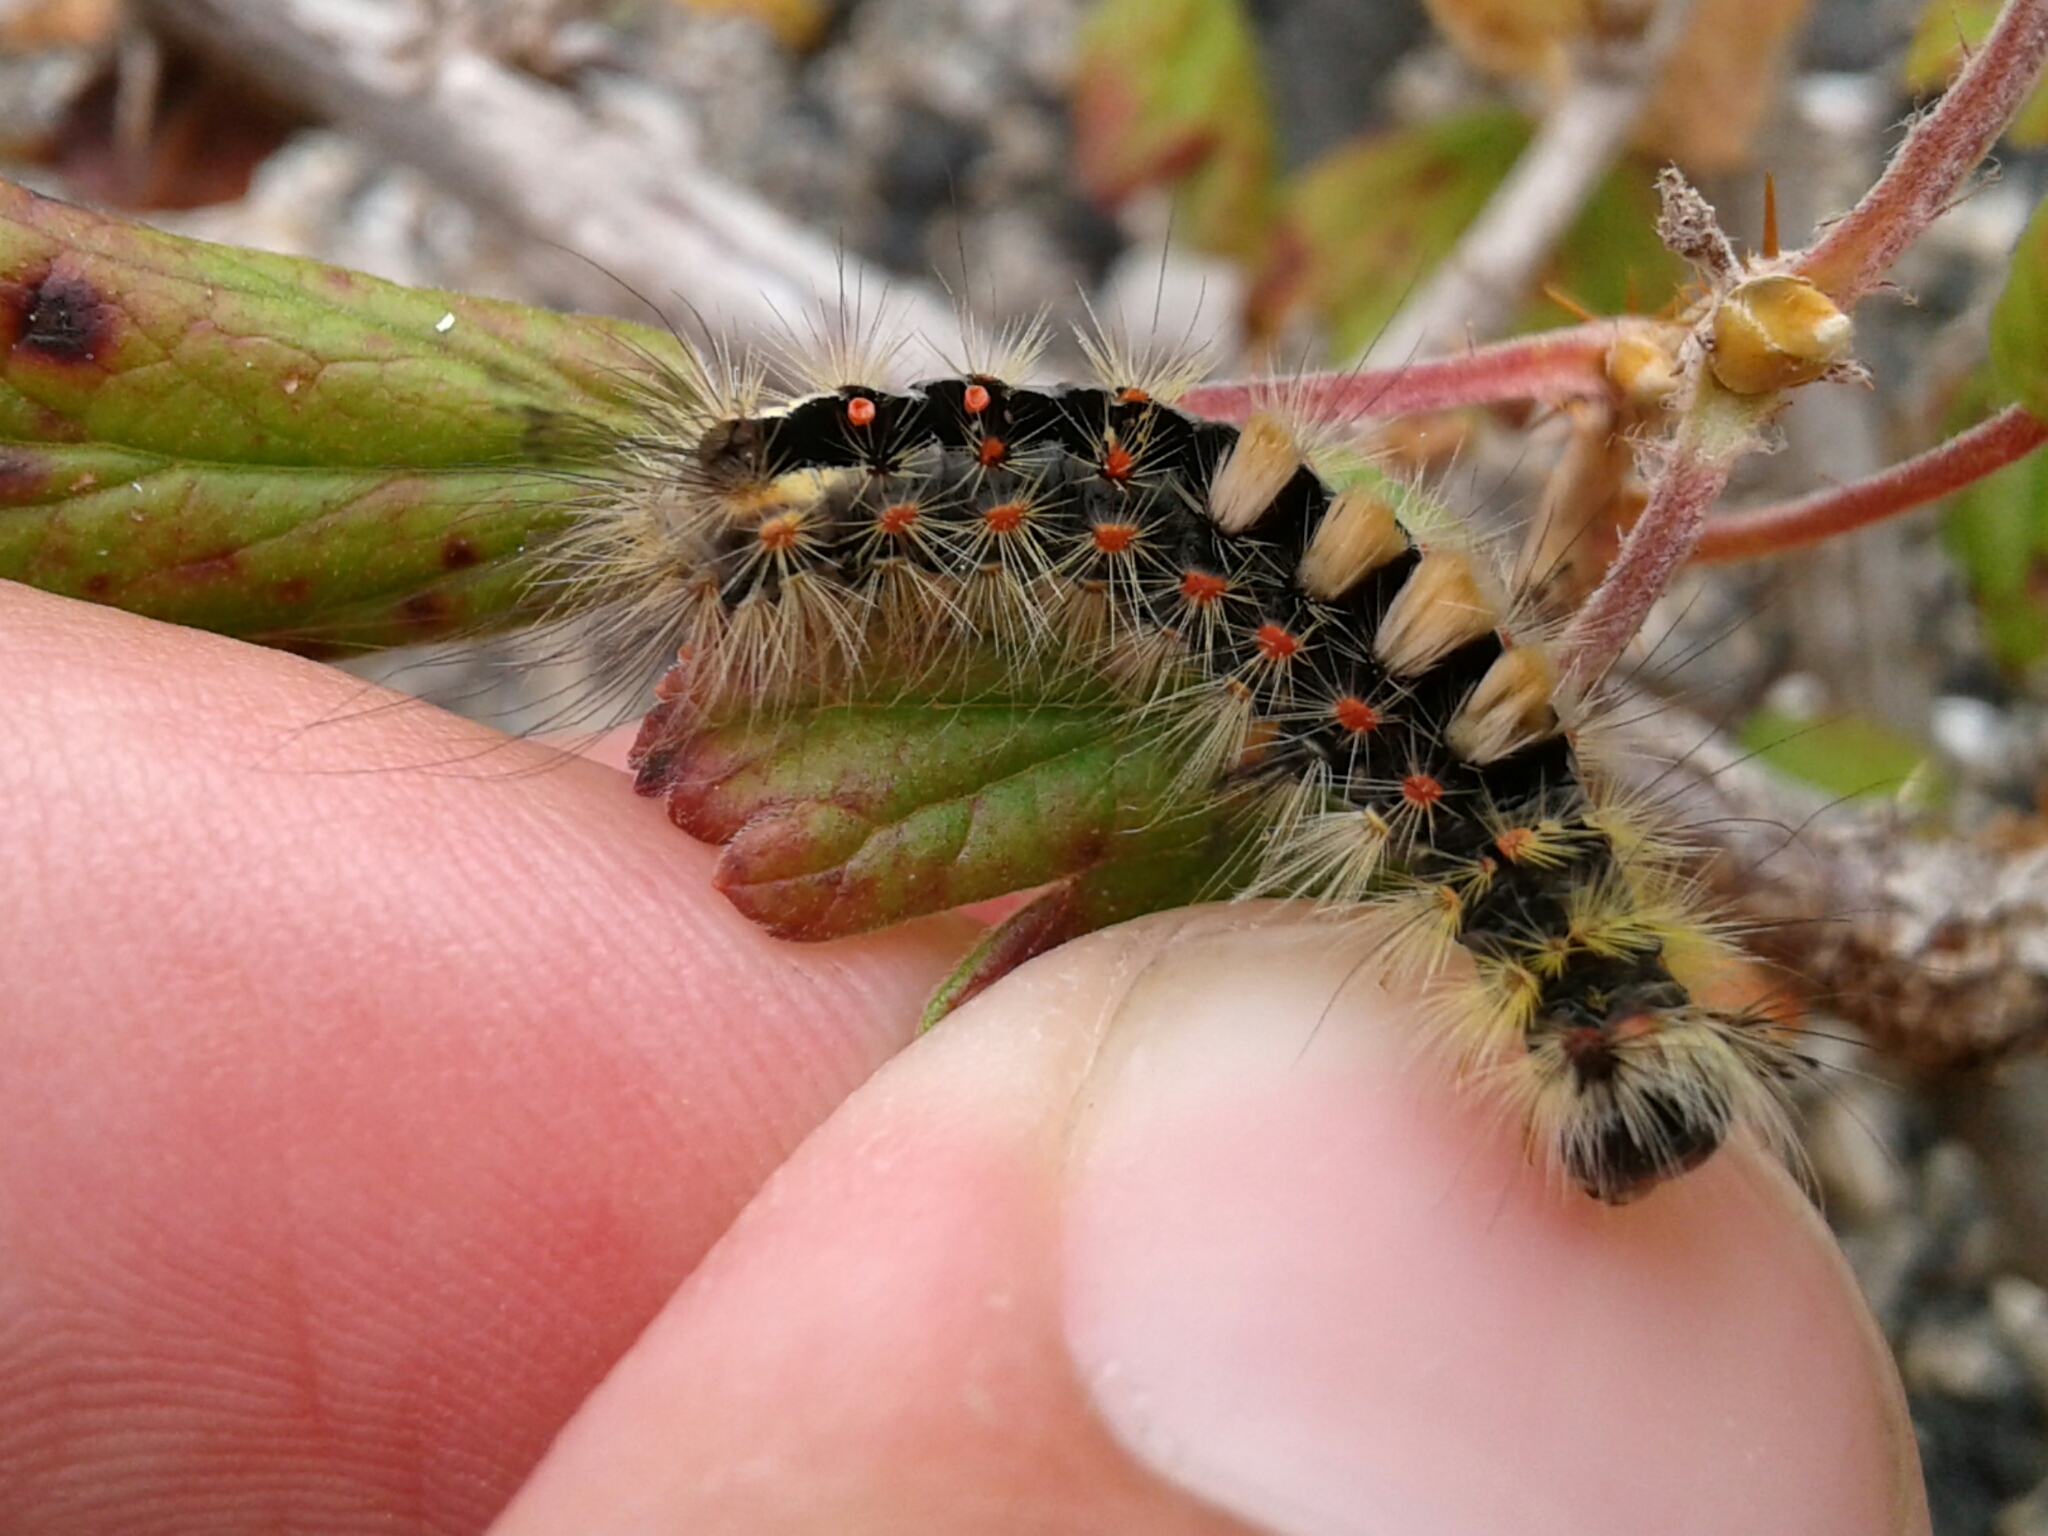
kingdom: Animalia
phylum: Arthropoda
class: Insecta
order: Lepidoptera
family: Erebidae
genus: Orgyia
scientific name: Orgyia antiqua
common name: Vapourer
